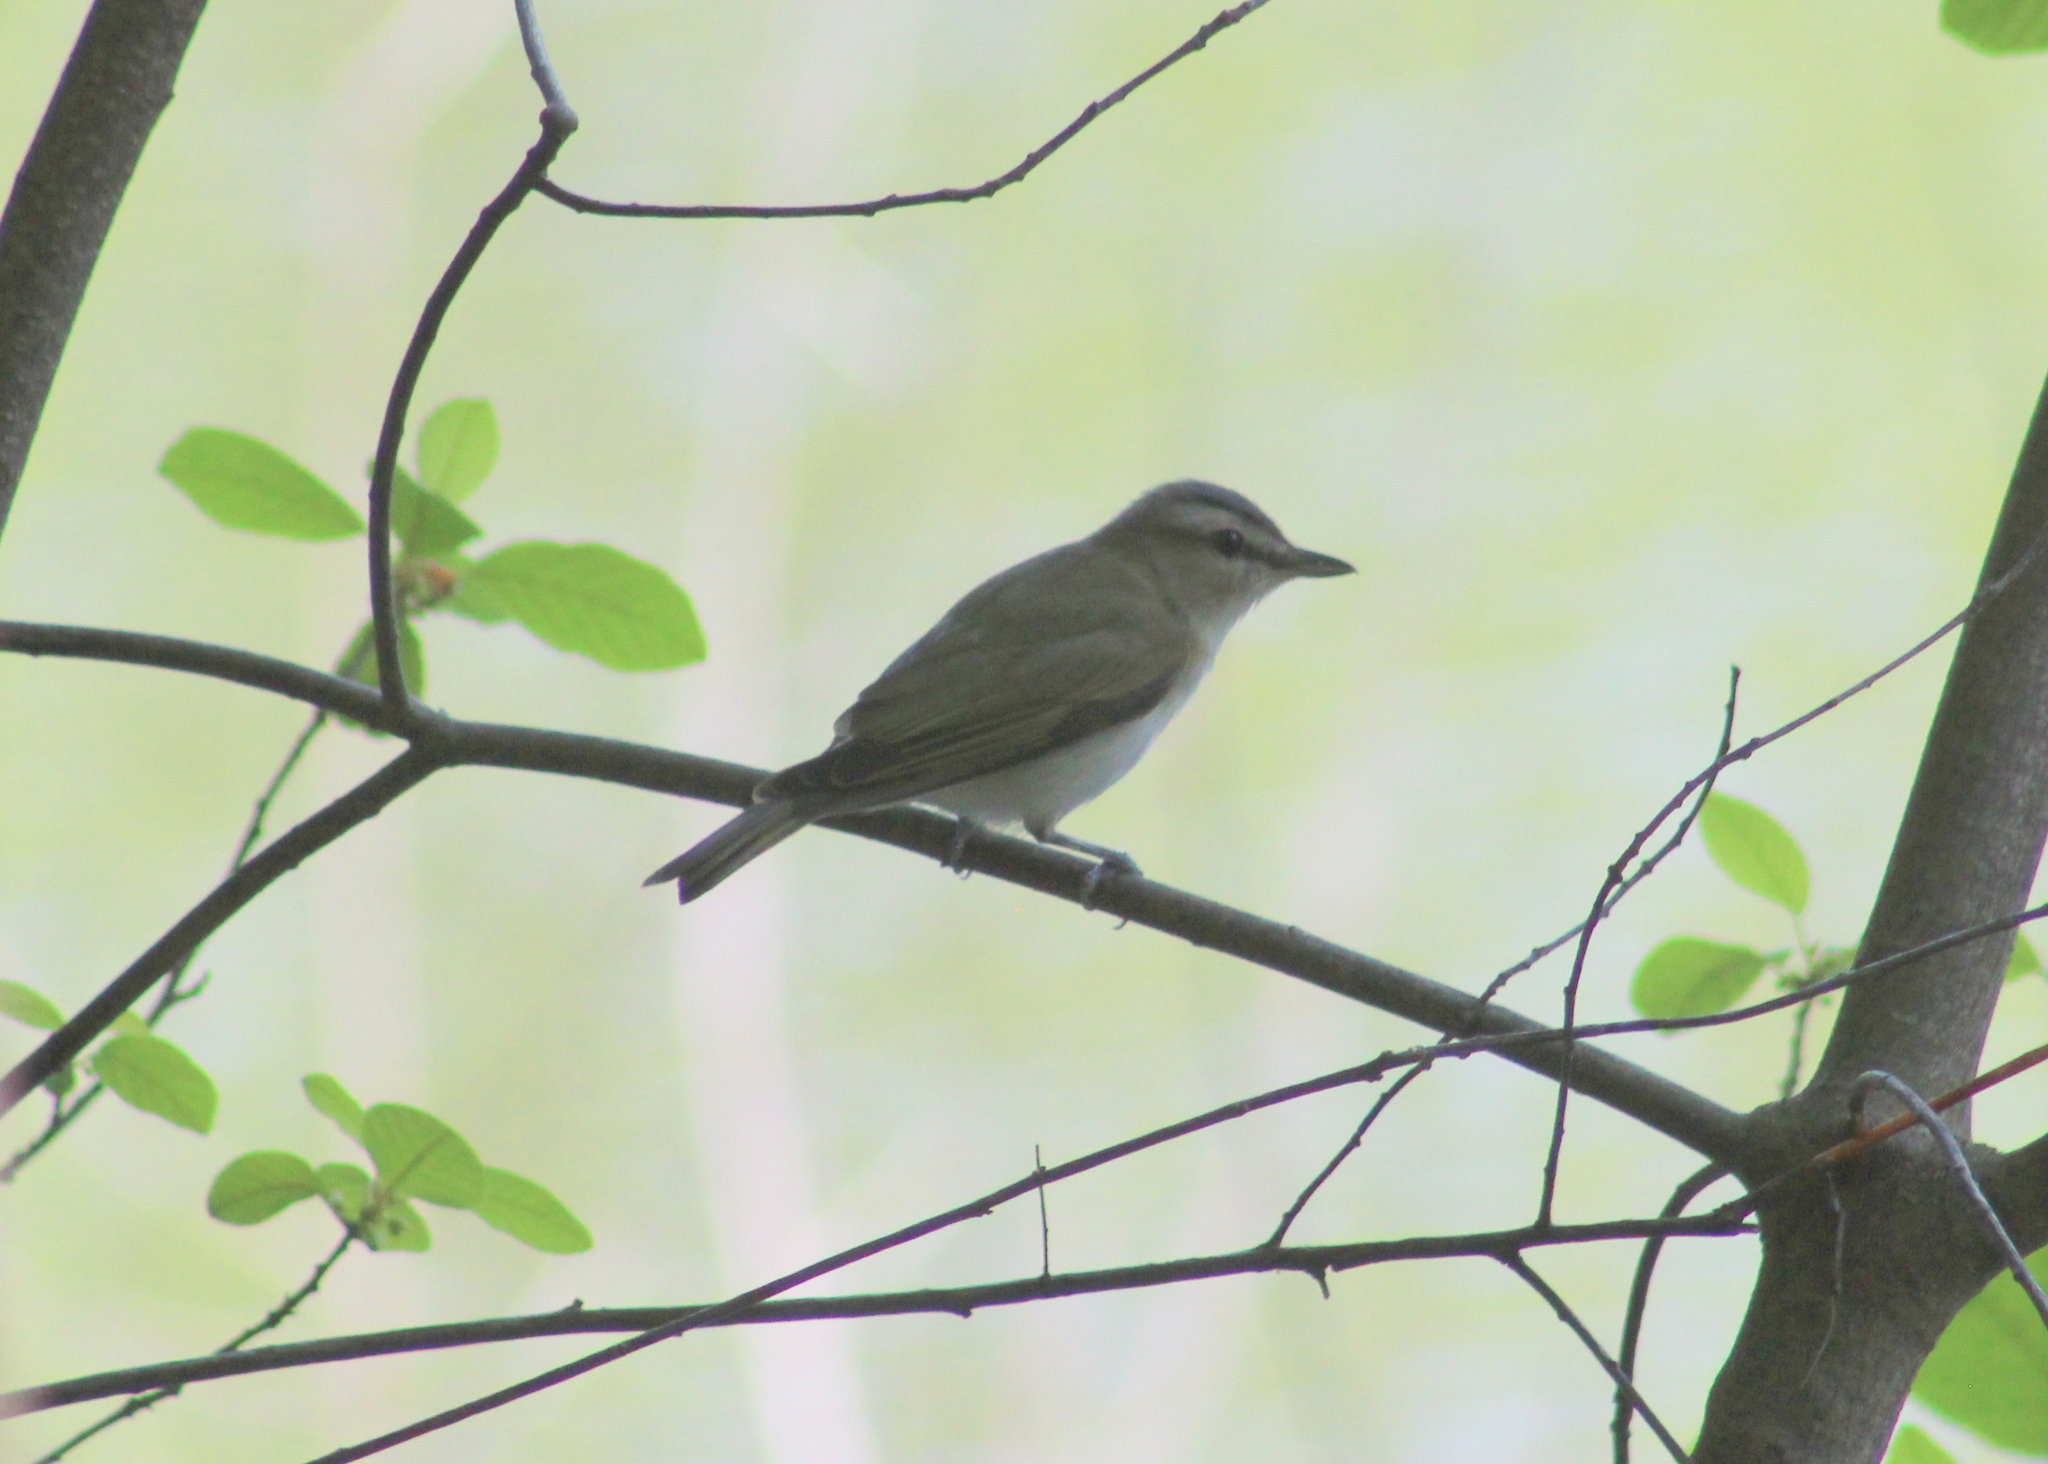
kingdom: Animalia
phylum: Chordata
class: Aves
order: Passeriformes
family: Vireonidae
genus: Vireo
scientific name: Vireo olivaceus
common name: Red-eyed vireo
